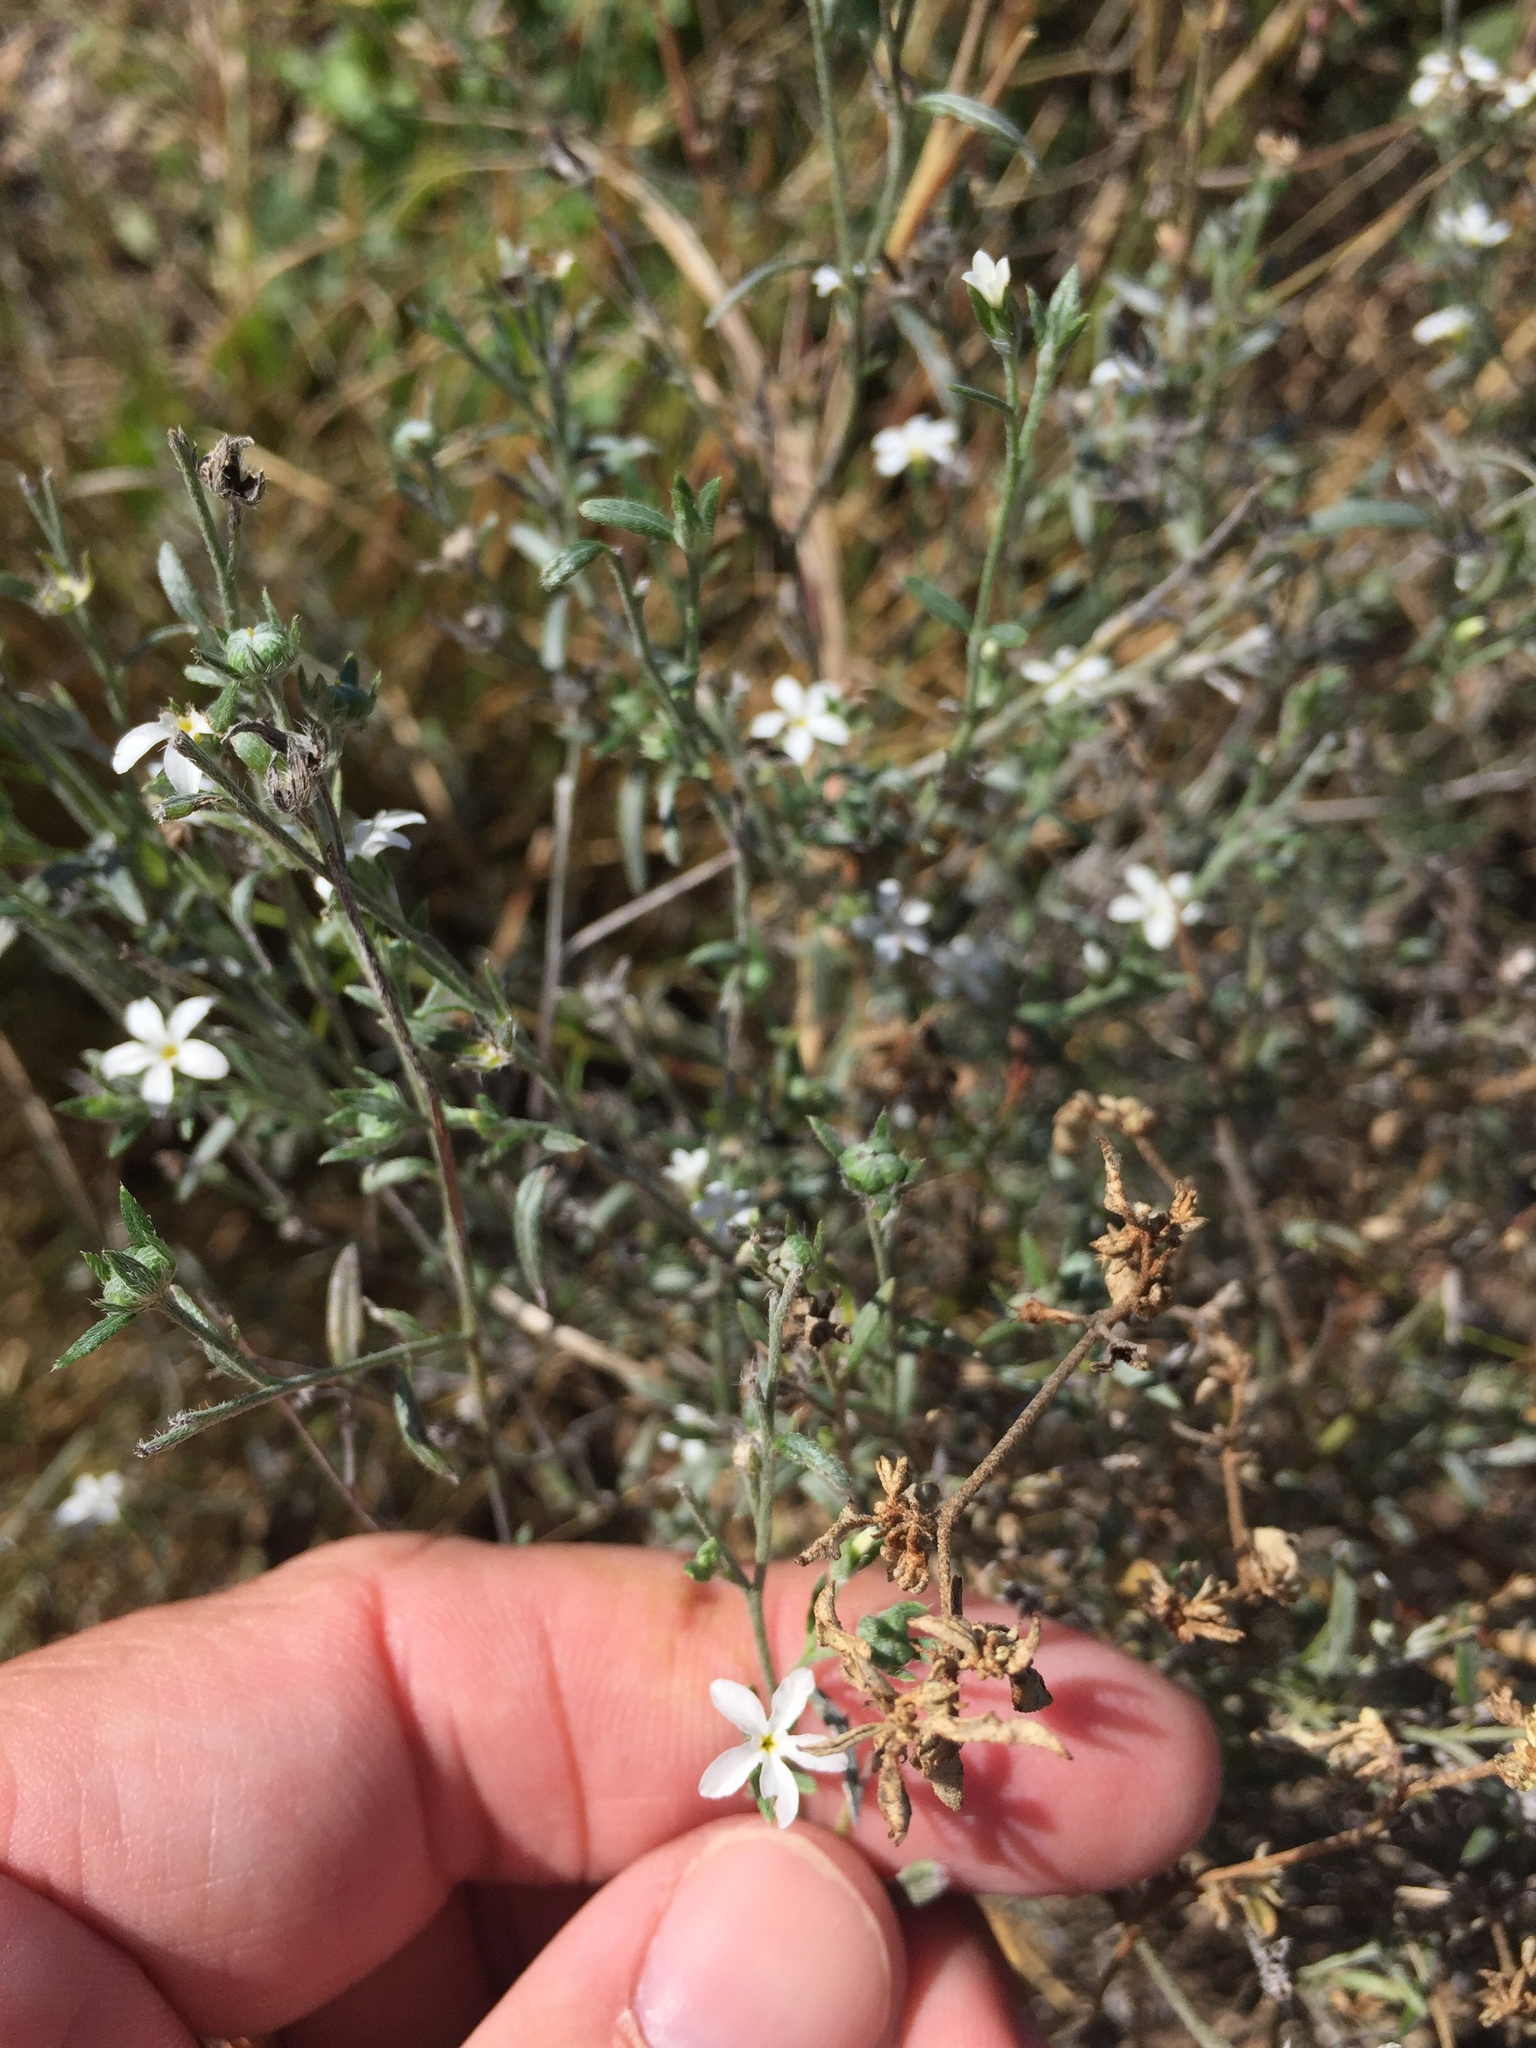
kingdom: Plantae
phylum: Tracheophyta
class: Magnoliopsida
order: Boraginales
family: Heliotropiaceae
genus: Euploca
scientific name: Euploca tenella
